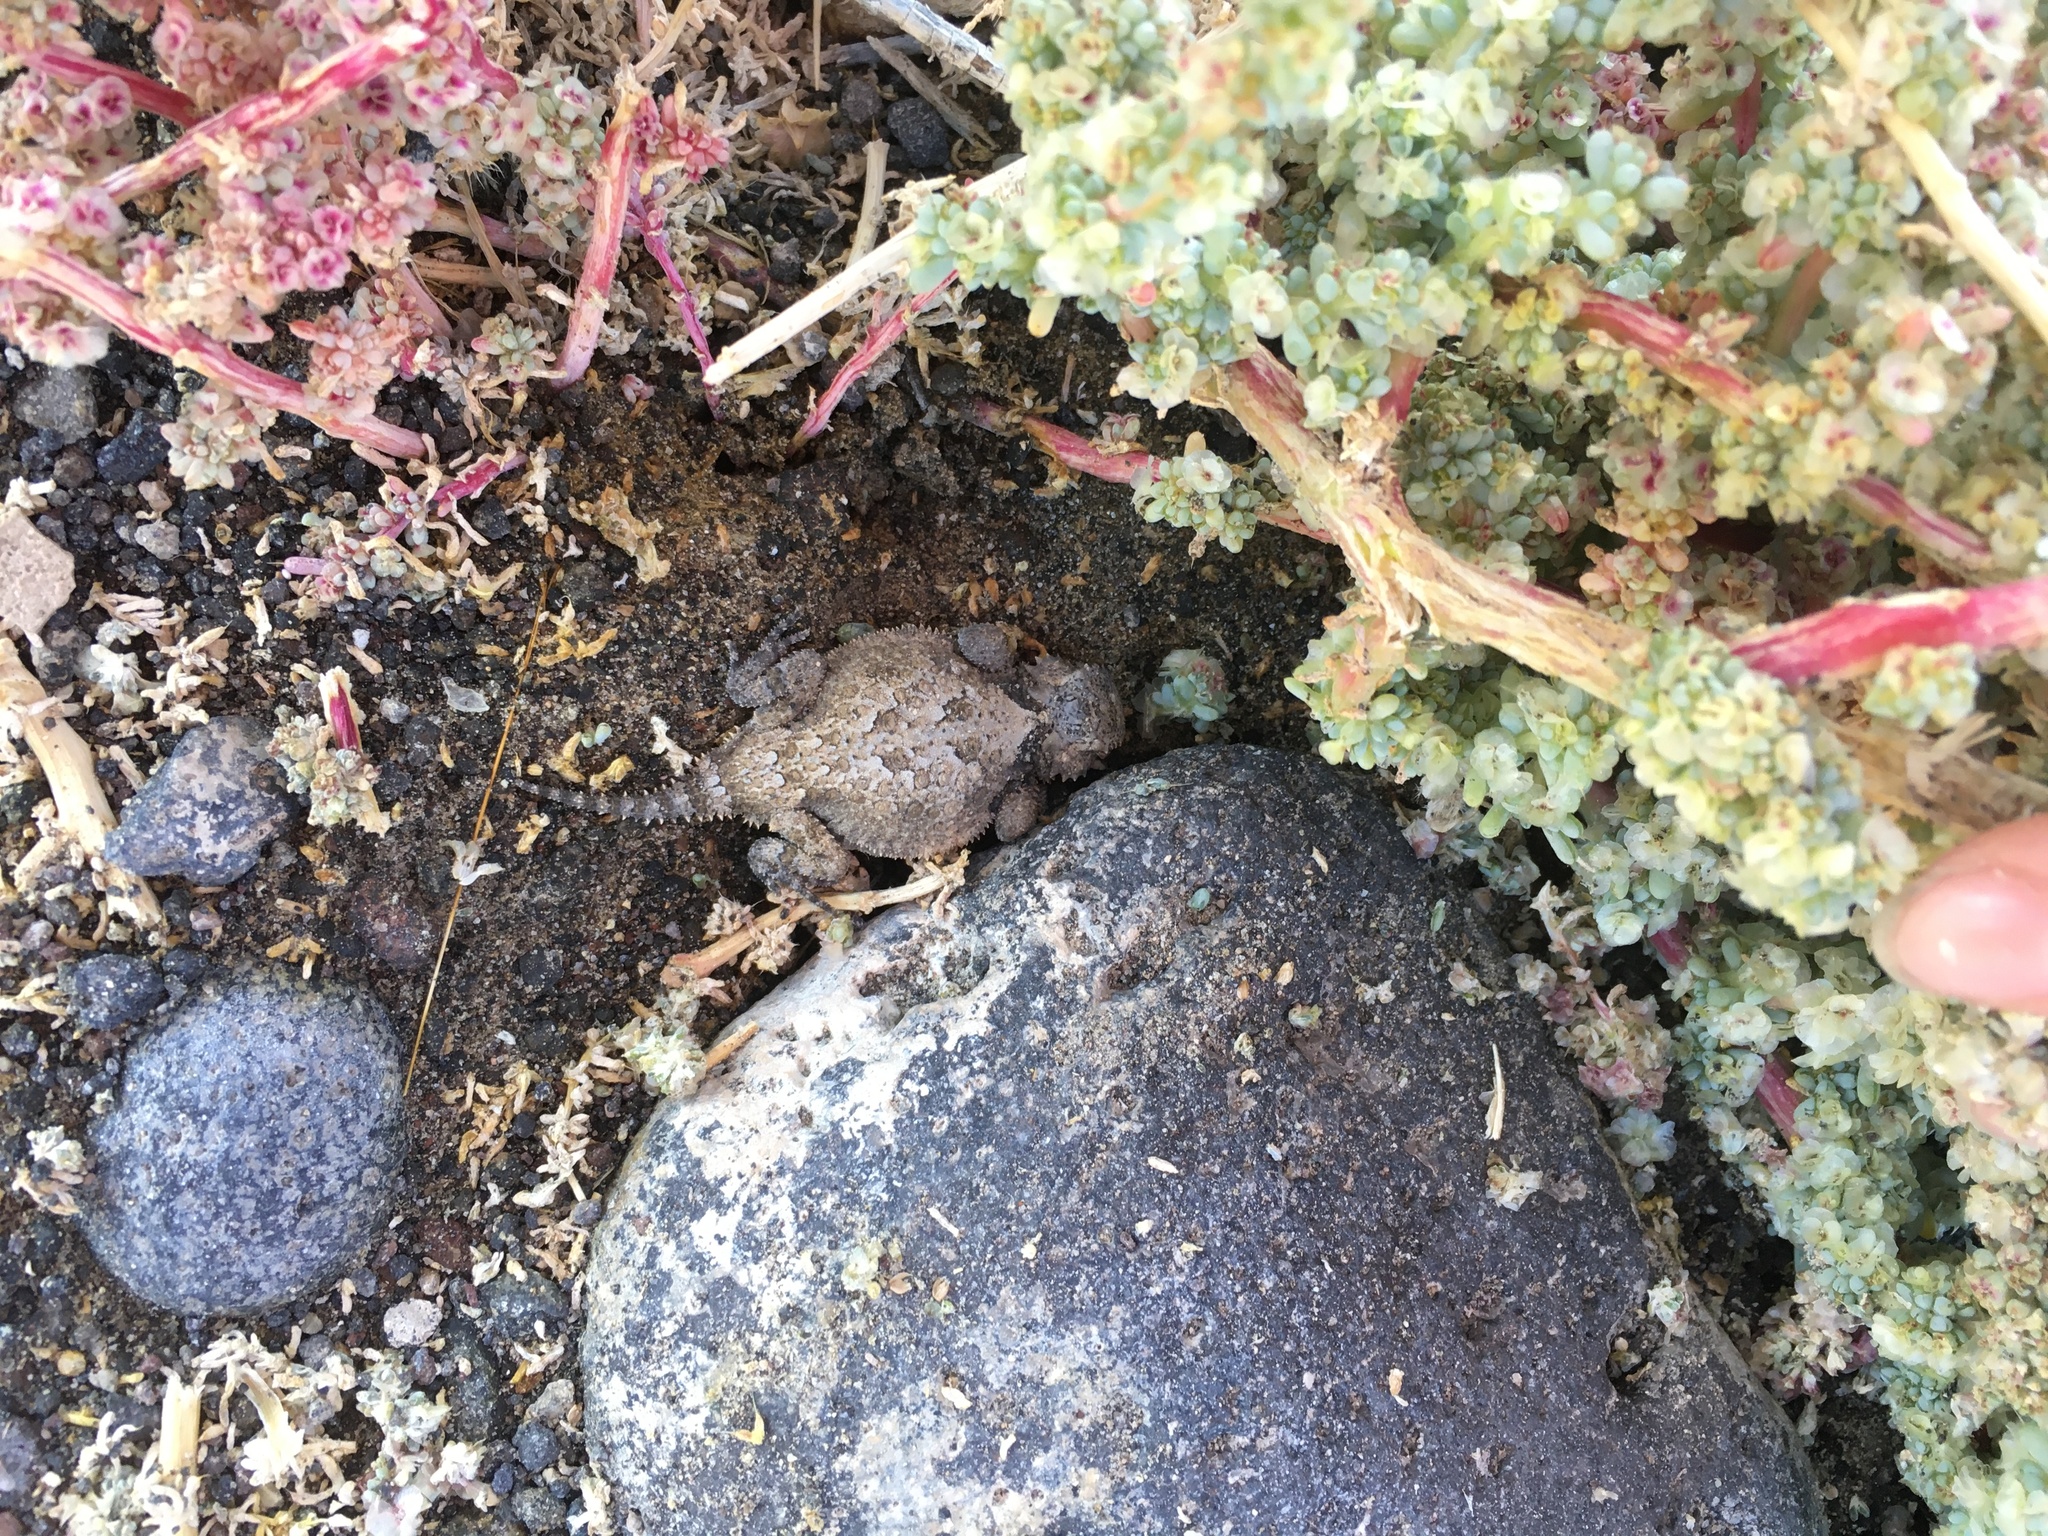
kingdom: Animalia
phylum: Chordata
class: Squamata
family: Phrynosomatidae
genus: Phrynosoma
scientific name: Phrynosoma platyrhinos
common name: Desert horned lizard
